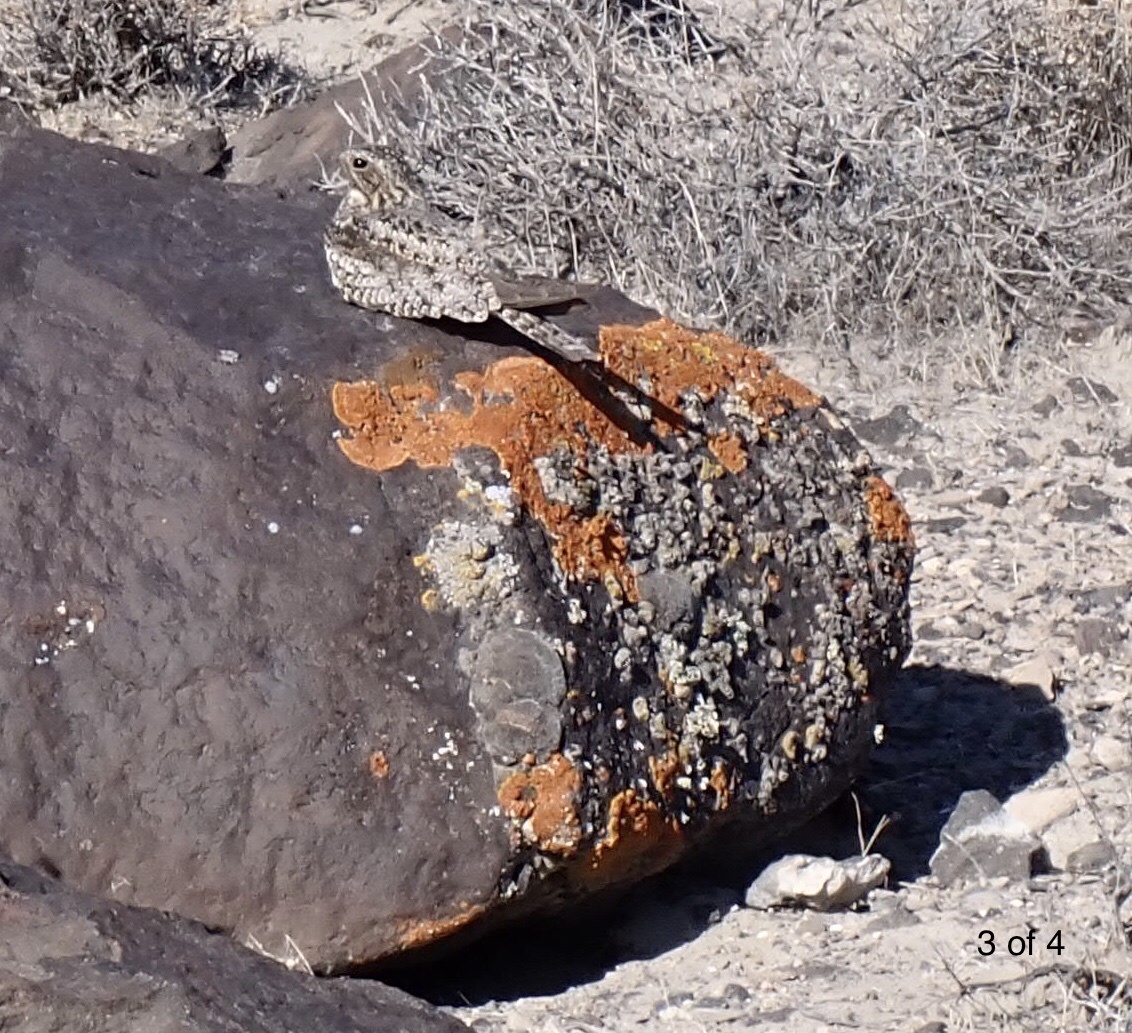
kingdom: Animalia
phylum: Chordata
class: Aves
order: Caprimulgiformes
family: Caprimulgidae
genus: Chordeiles
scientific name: Chordeiles minor
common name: Common nighthawk
